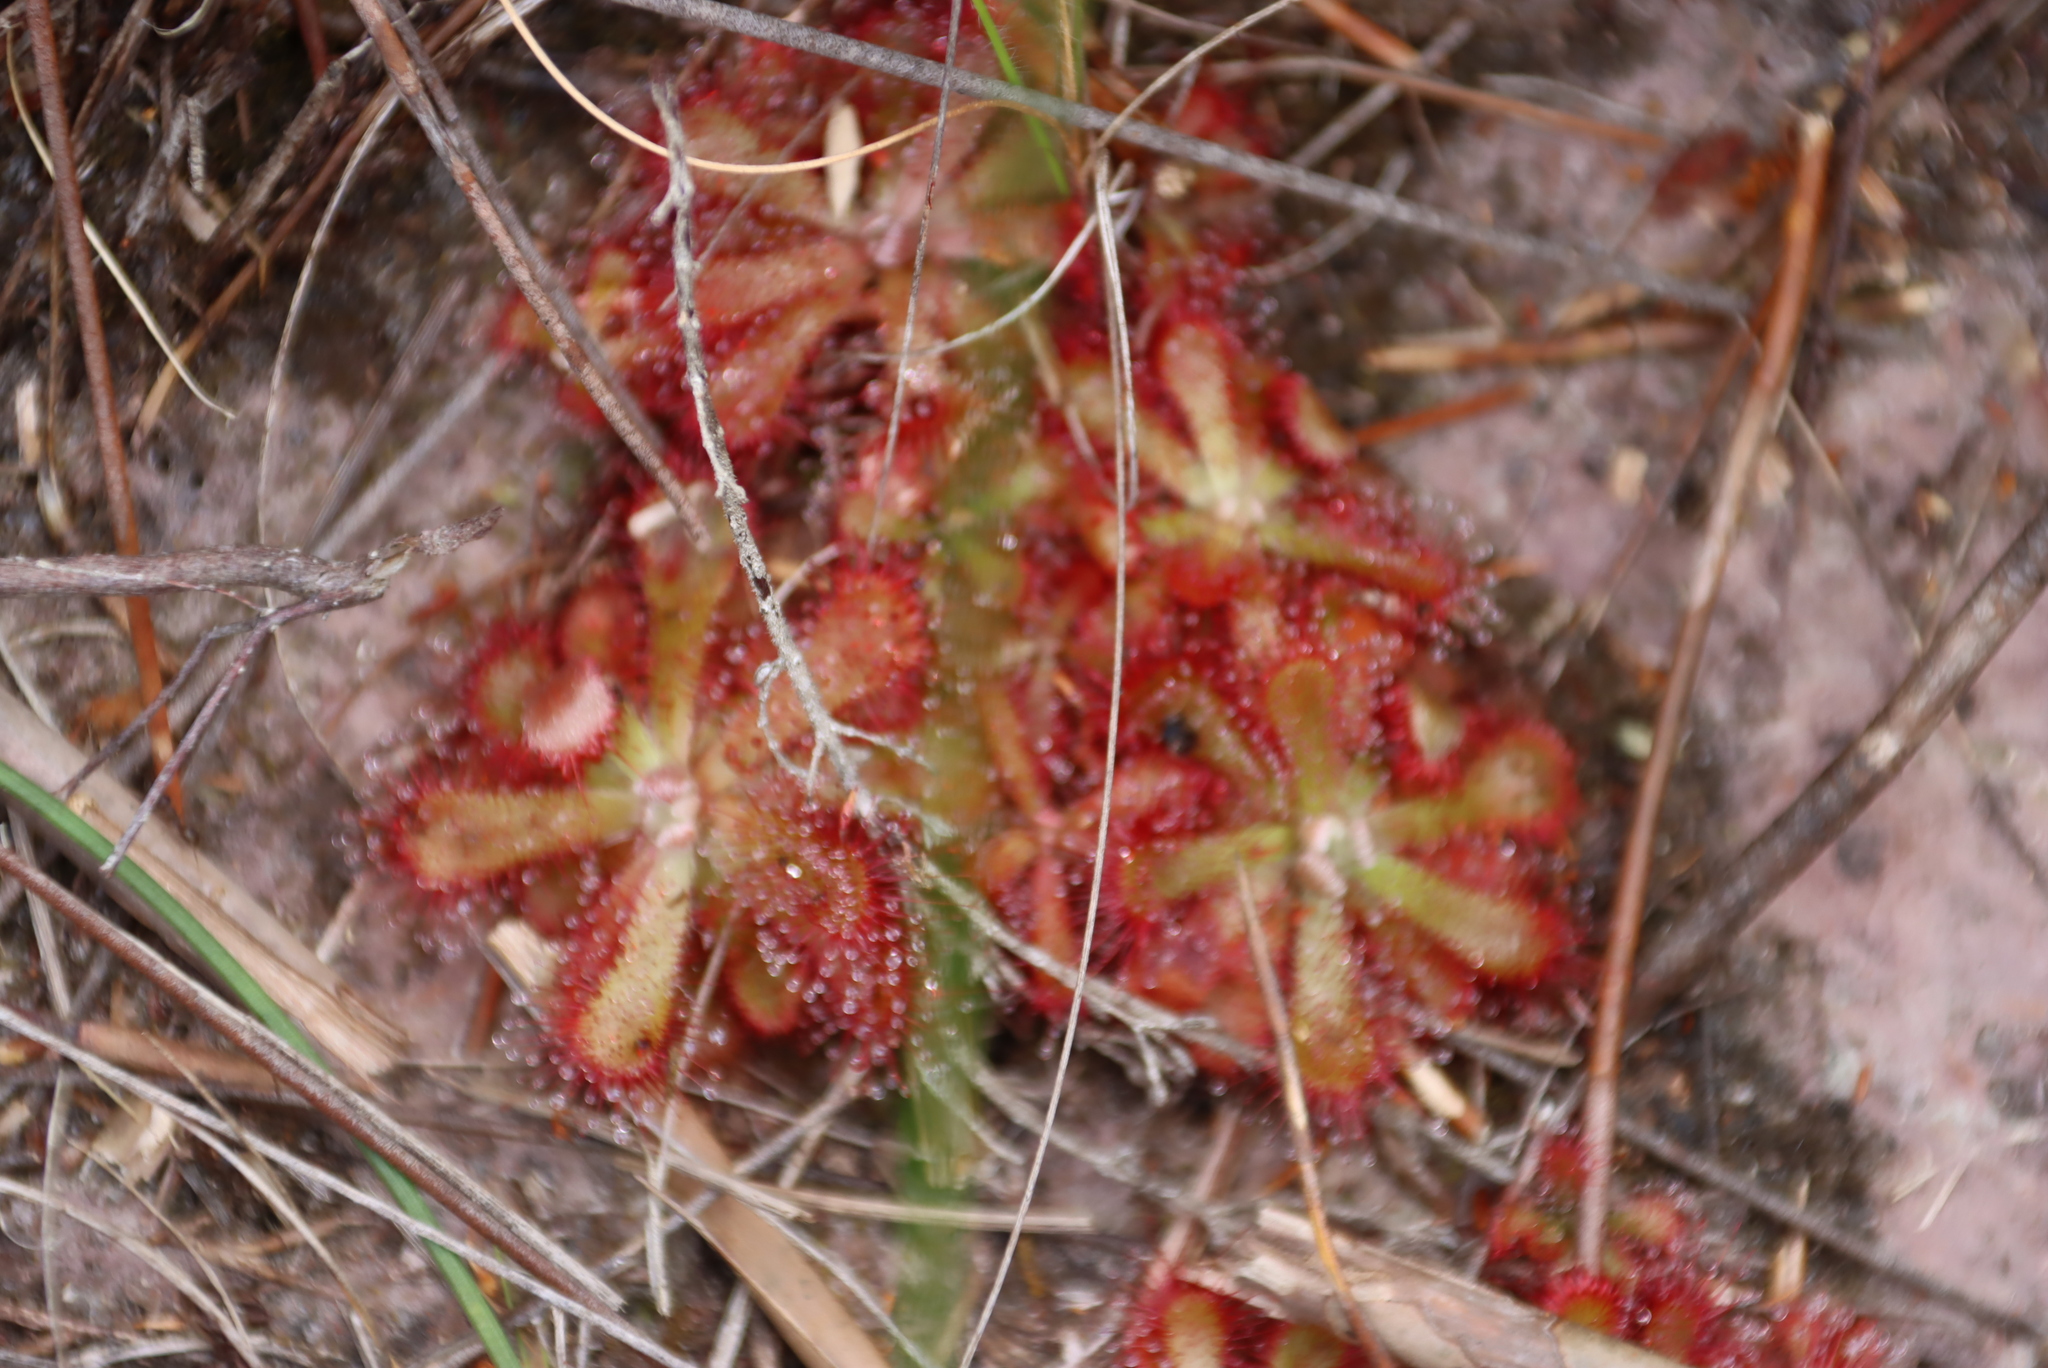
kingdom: Plantae
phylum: Tracheophyta
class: Magnoliopsida
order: Caryophyllales
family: Droseraceae
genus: Drosera
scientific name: Drosera aliciae
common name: Alice sundew
